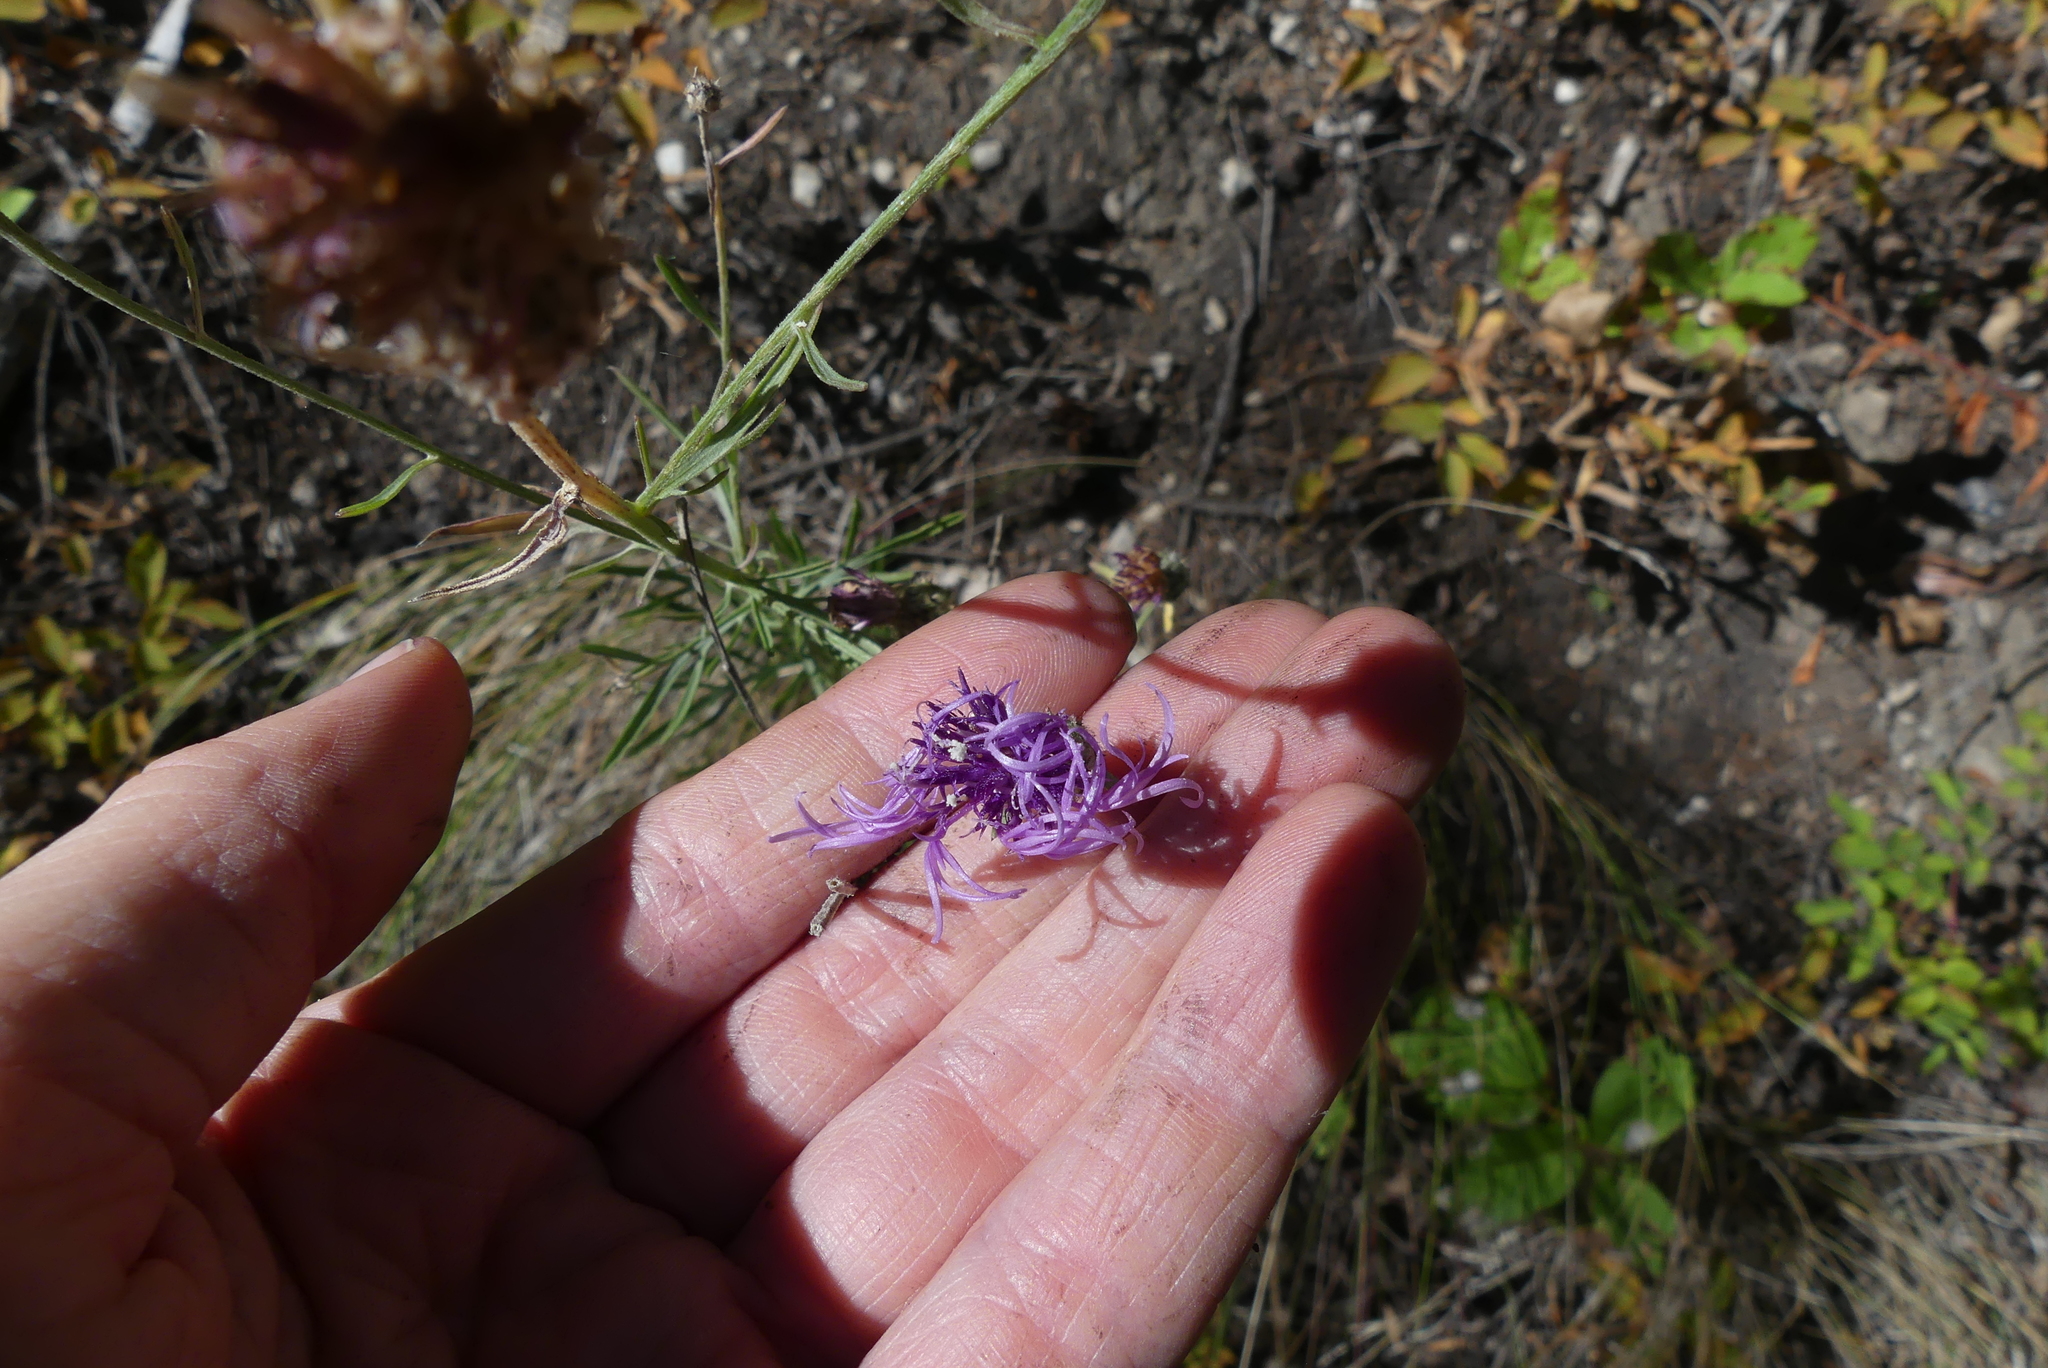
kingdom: Plantae
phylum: Tracheophyta
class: Magnoliopsida
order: Asterales
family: Asteraceae
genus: Centaurea
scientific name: Centaurea stoebe
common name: Spotted knapweed
